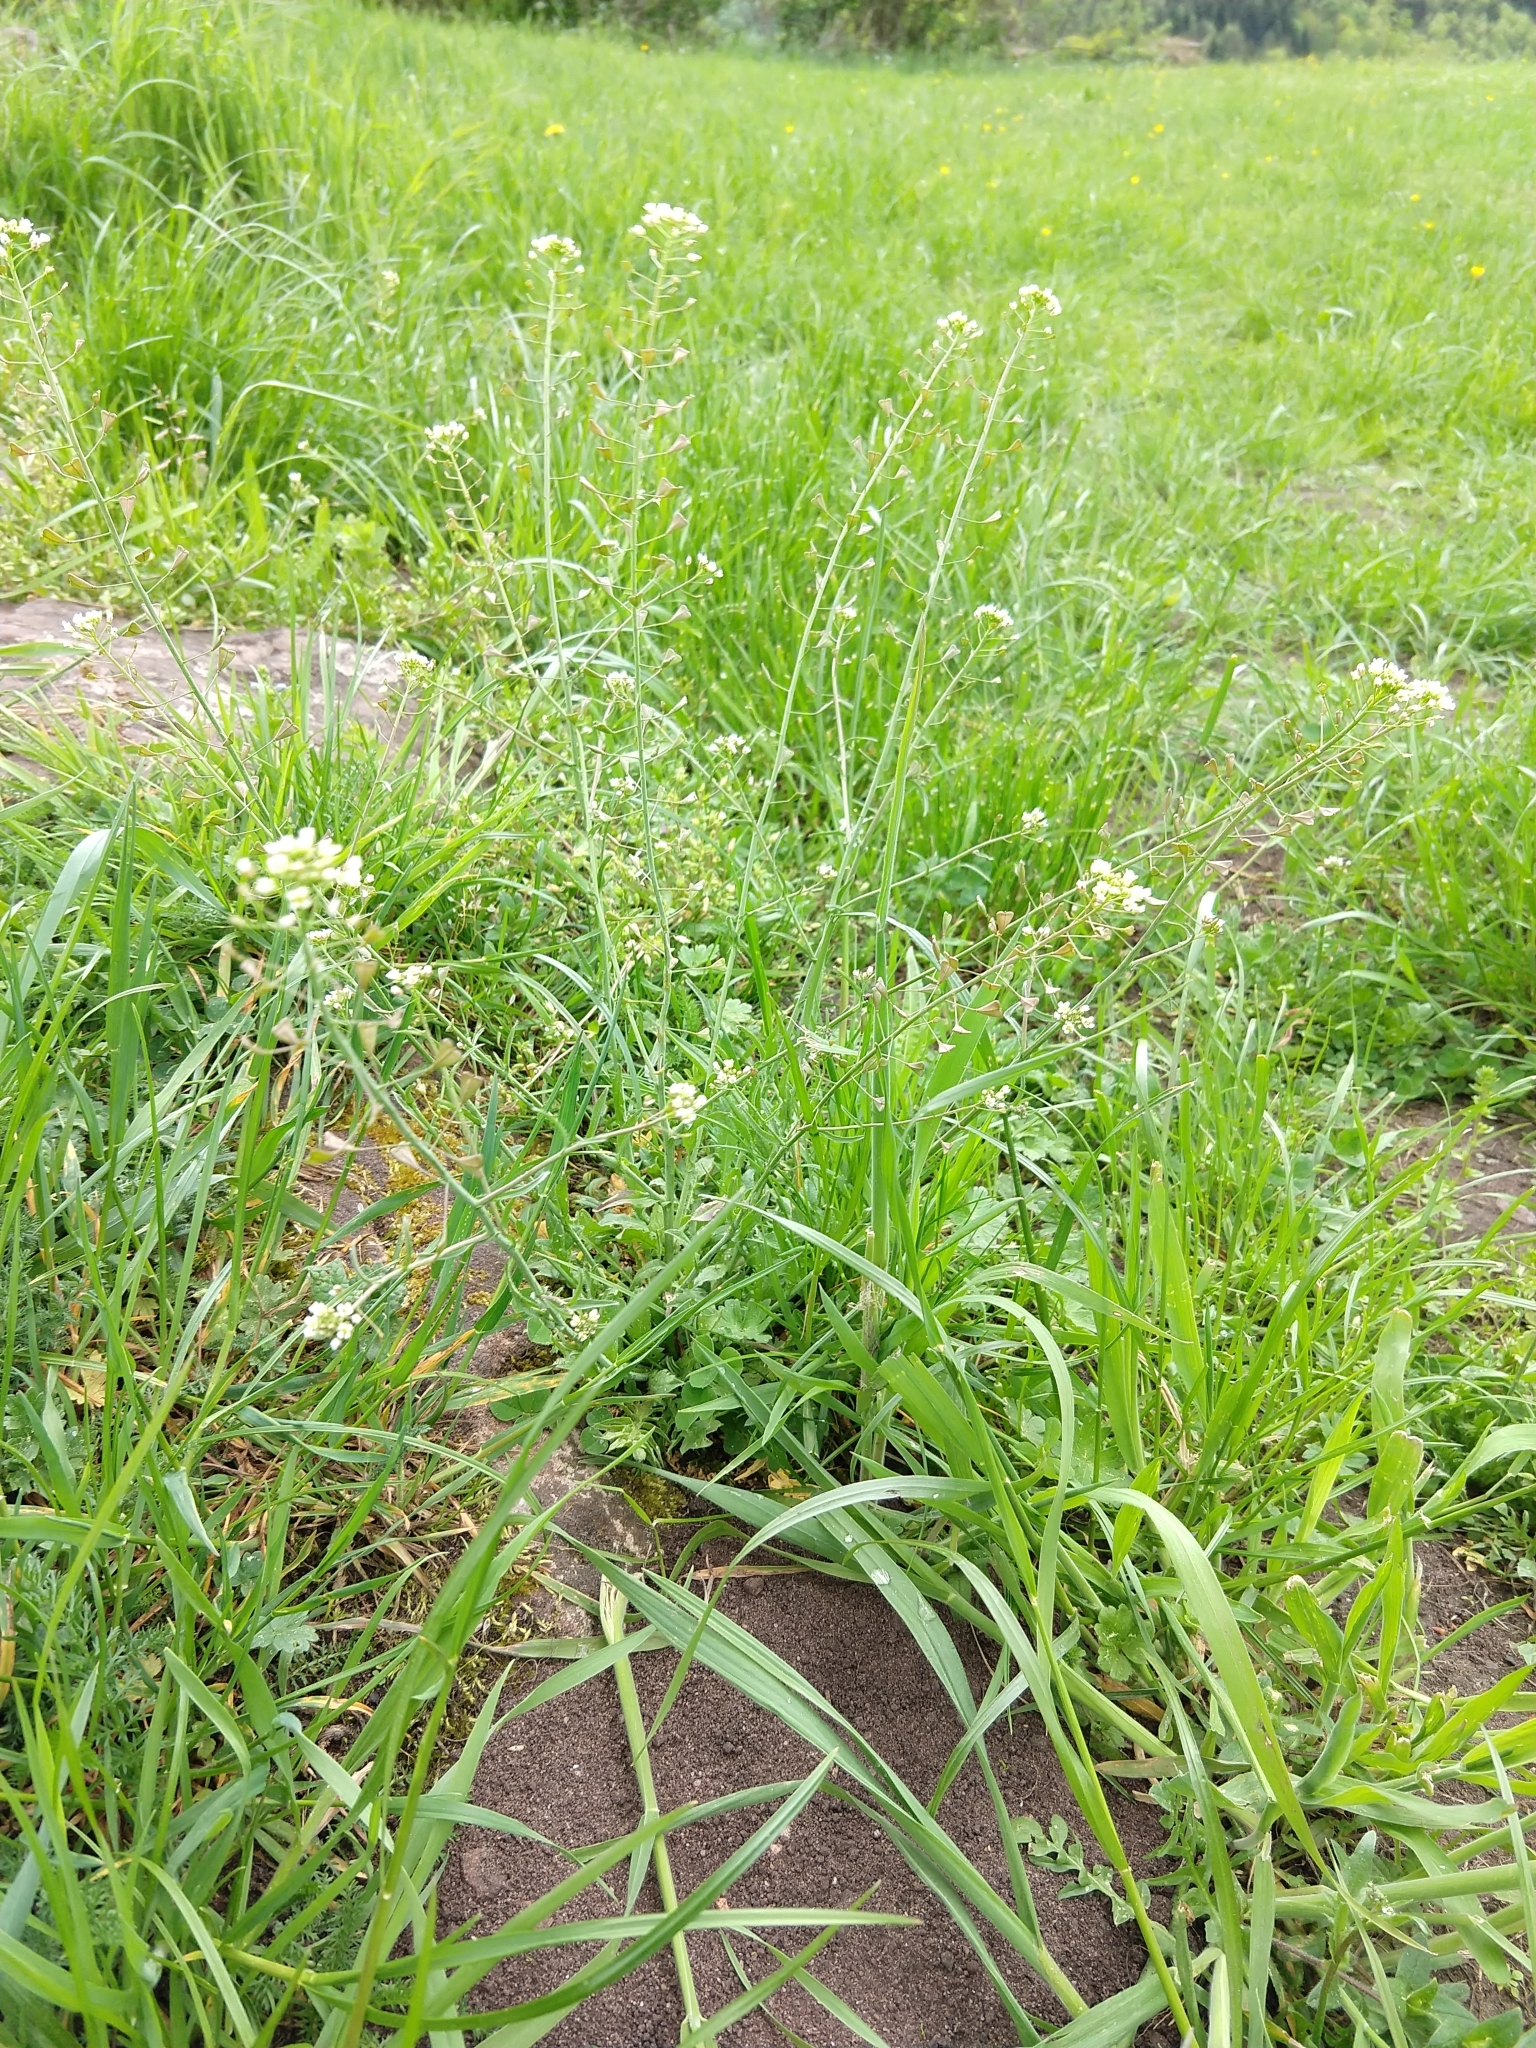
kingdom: Plantae
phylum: Tracheophyta
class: Magnoliopsida
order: Brassicales
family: Brassicaceae
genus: Capsella
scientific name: Capsella bursa-pastoris
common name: Shepherd's purse
